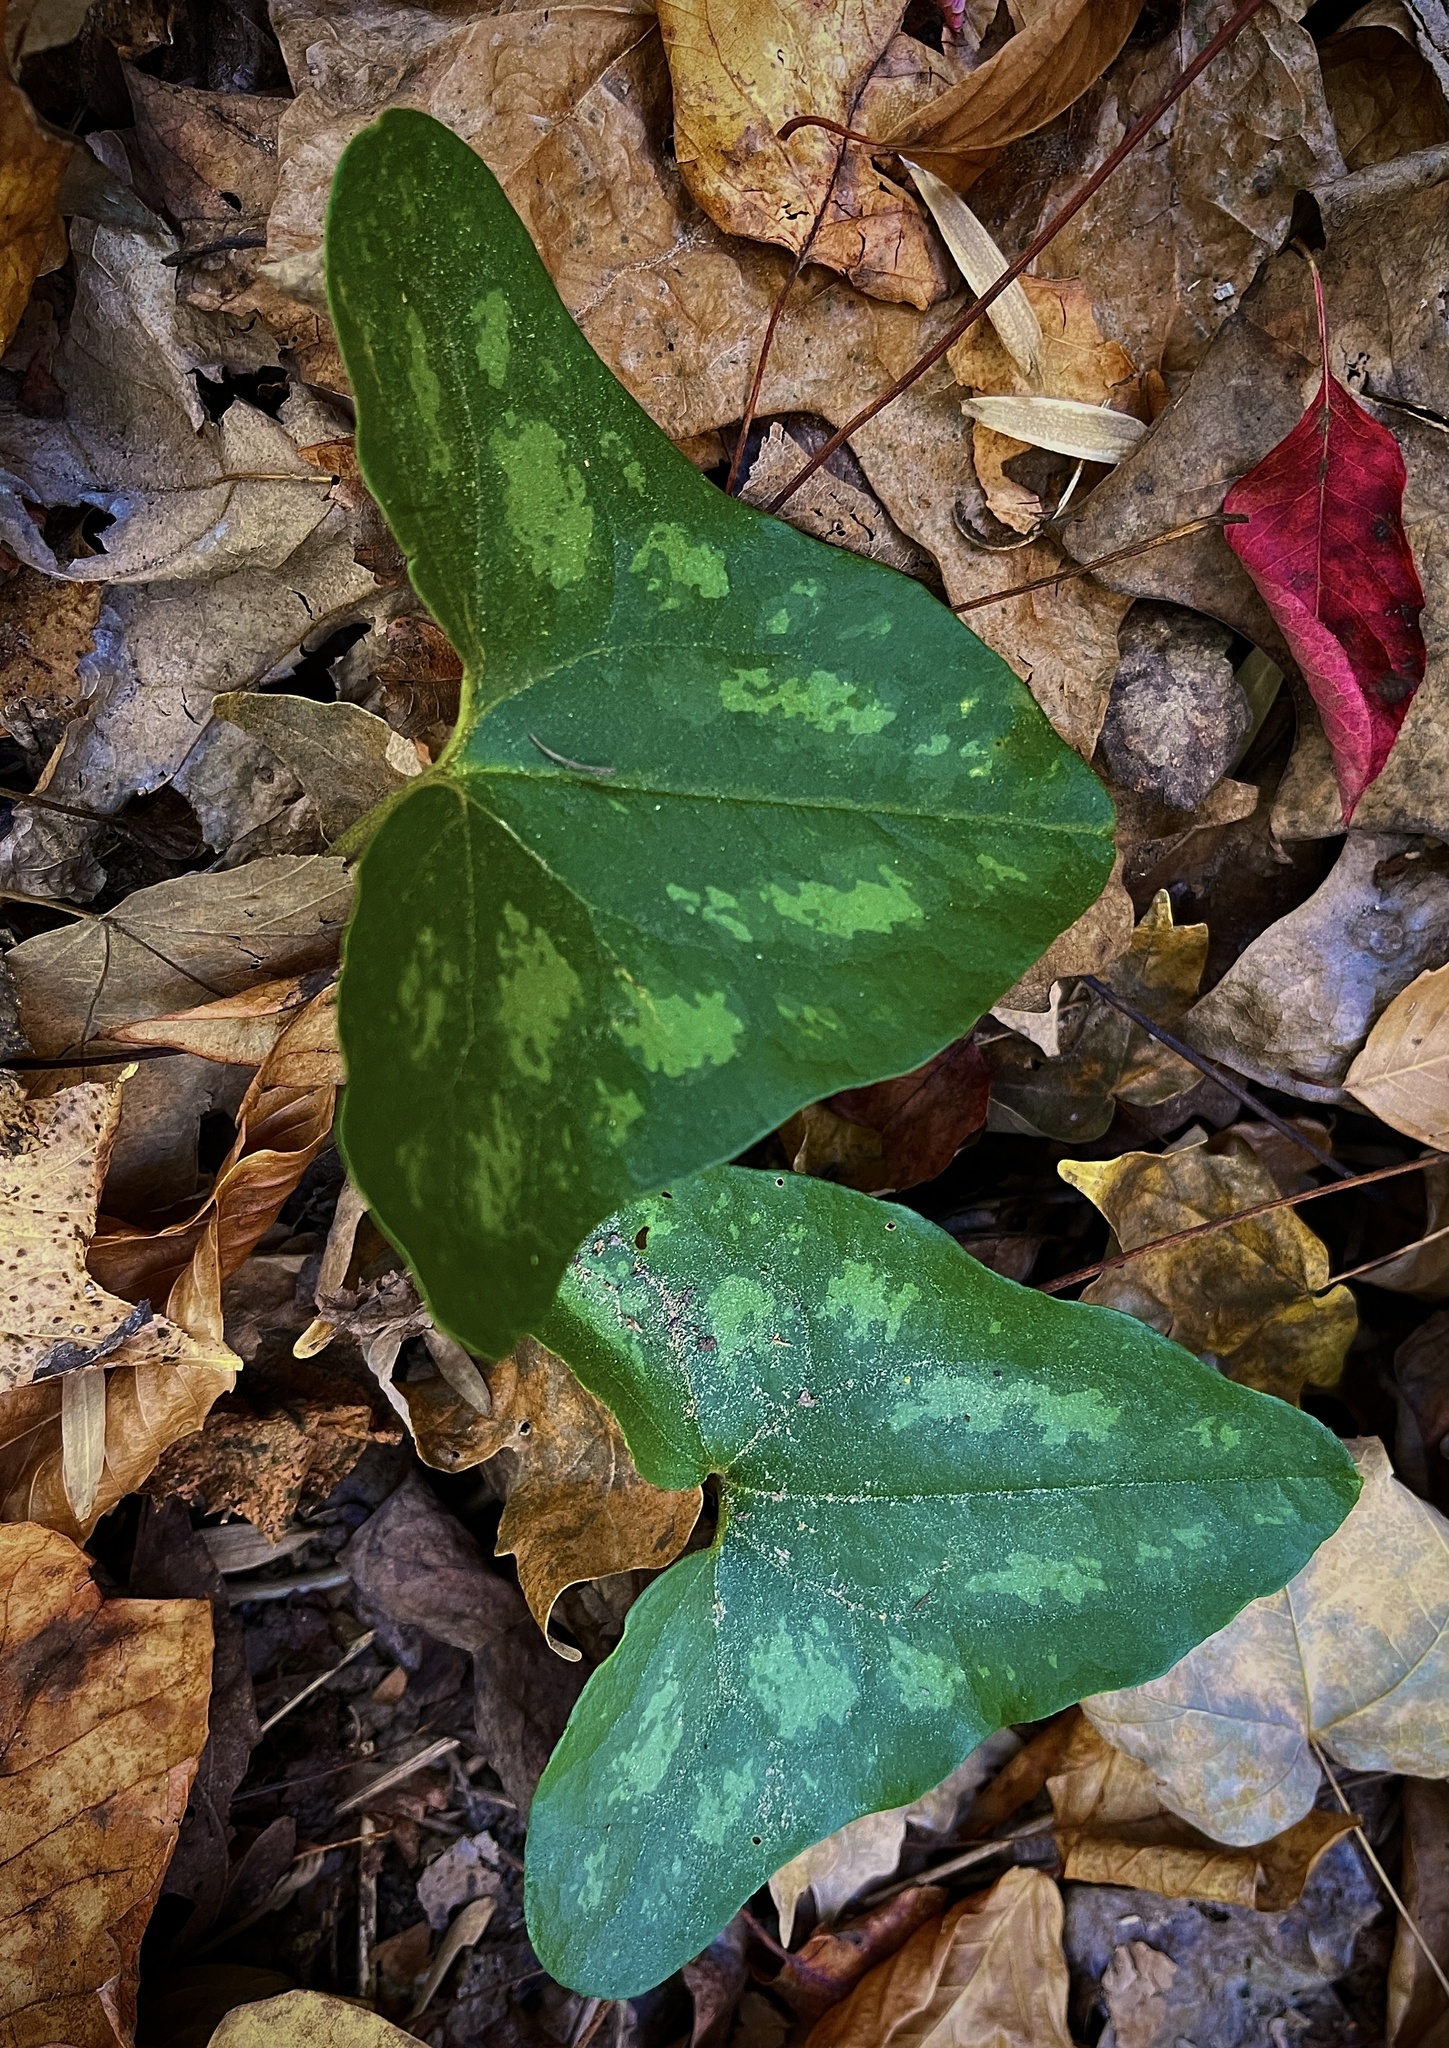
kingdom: Plantae
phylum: Tracheophyta
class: Magnoliopsida
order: Piperales
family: Aristolochiaceae
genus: Hexastylis
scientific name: Hexastylis arifolia
